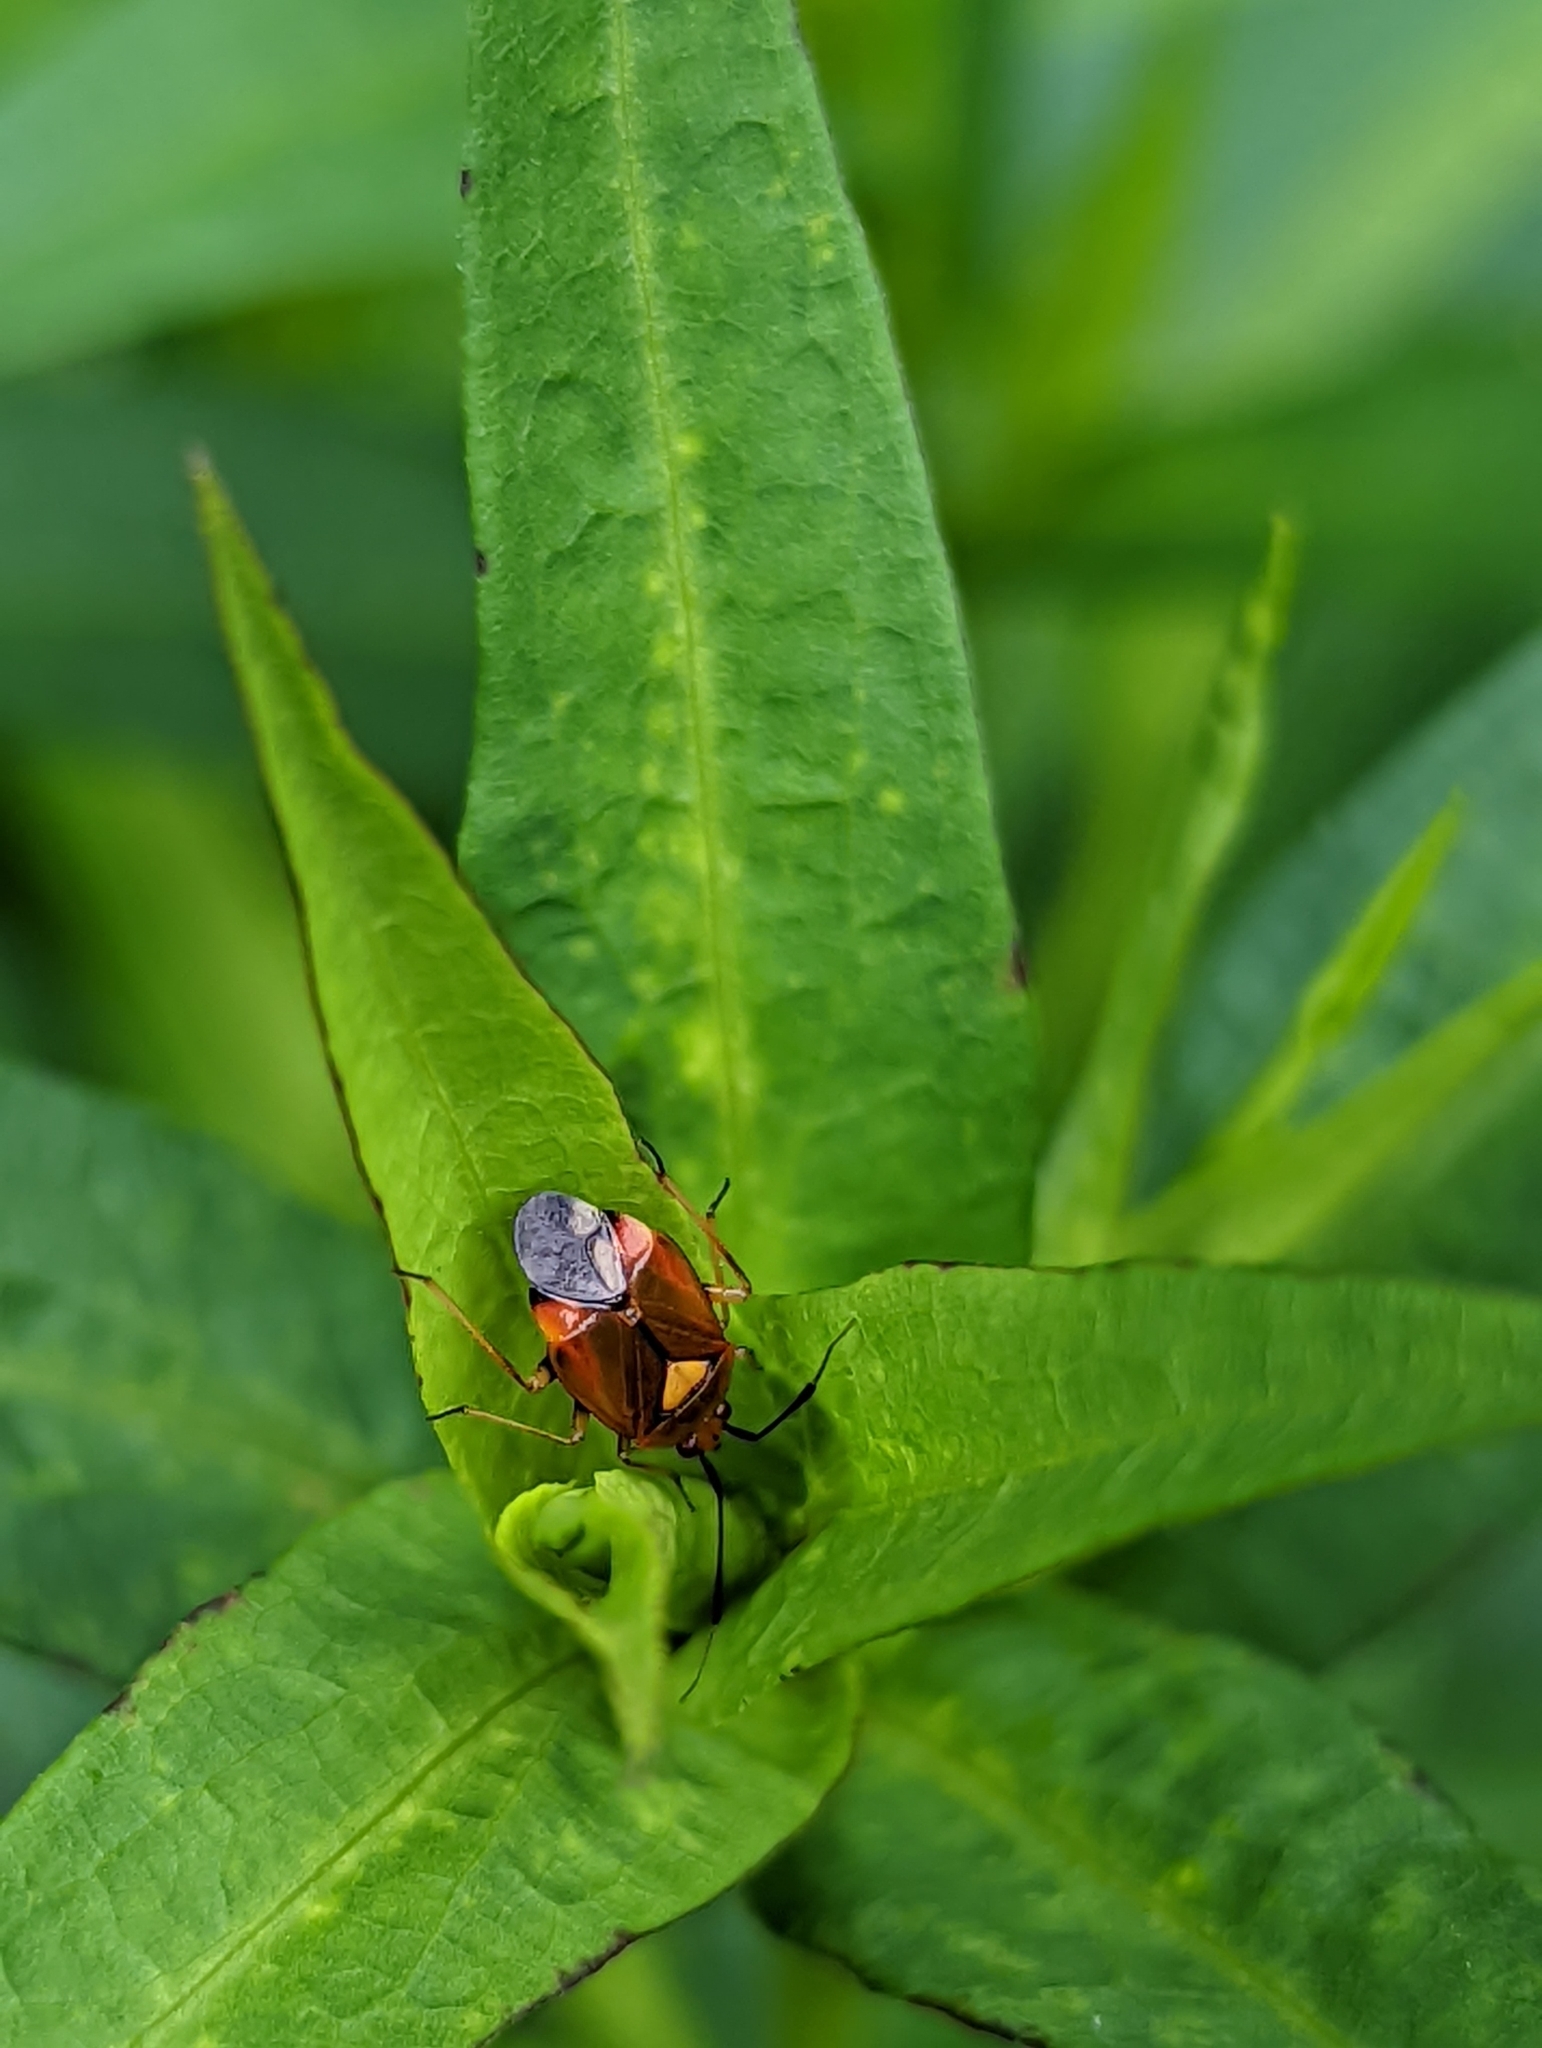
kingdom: Animalia
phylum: Arthropoda
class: Insecta
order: Hemiptera
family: Miridae
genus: Deraeocoris
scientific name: Deraeocoris ruber
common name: Plant bug
